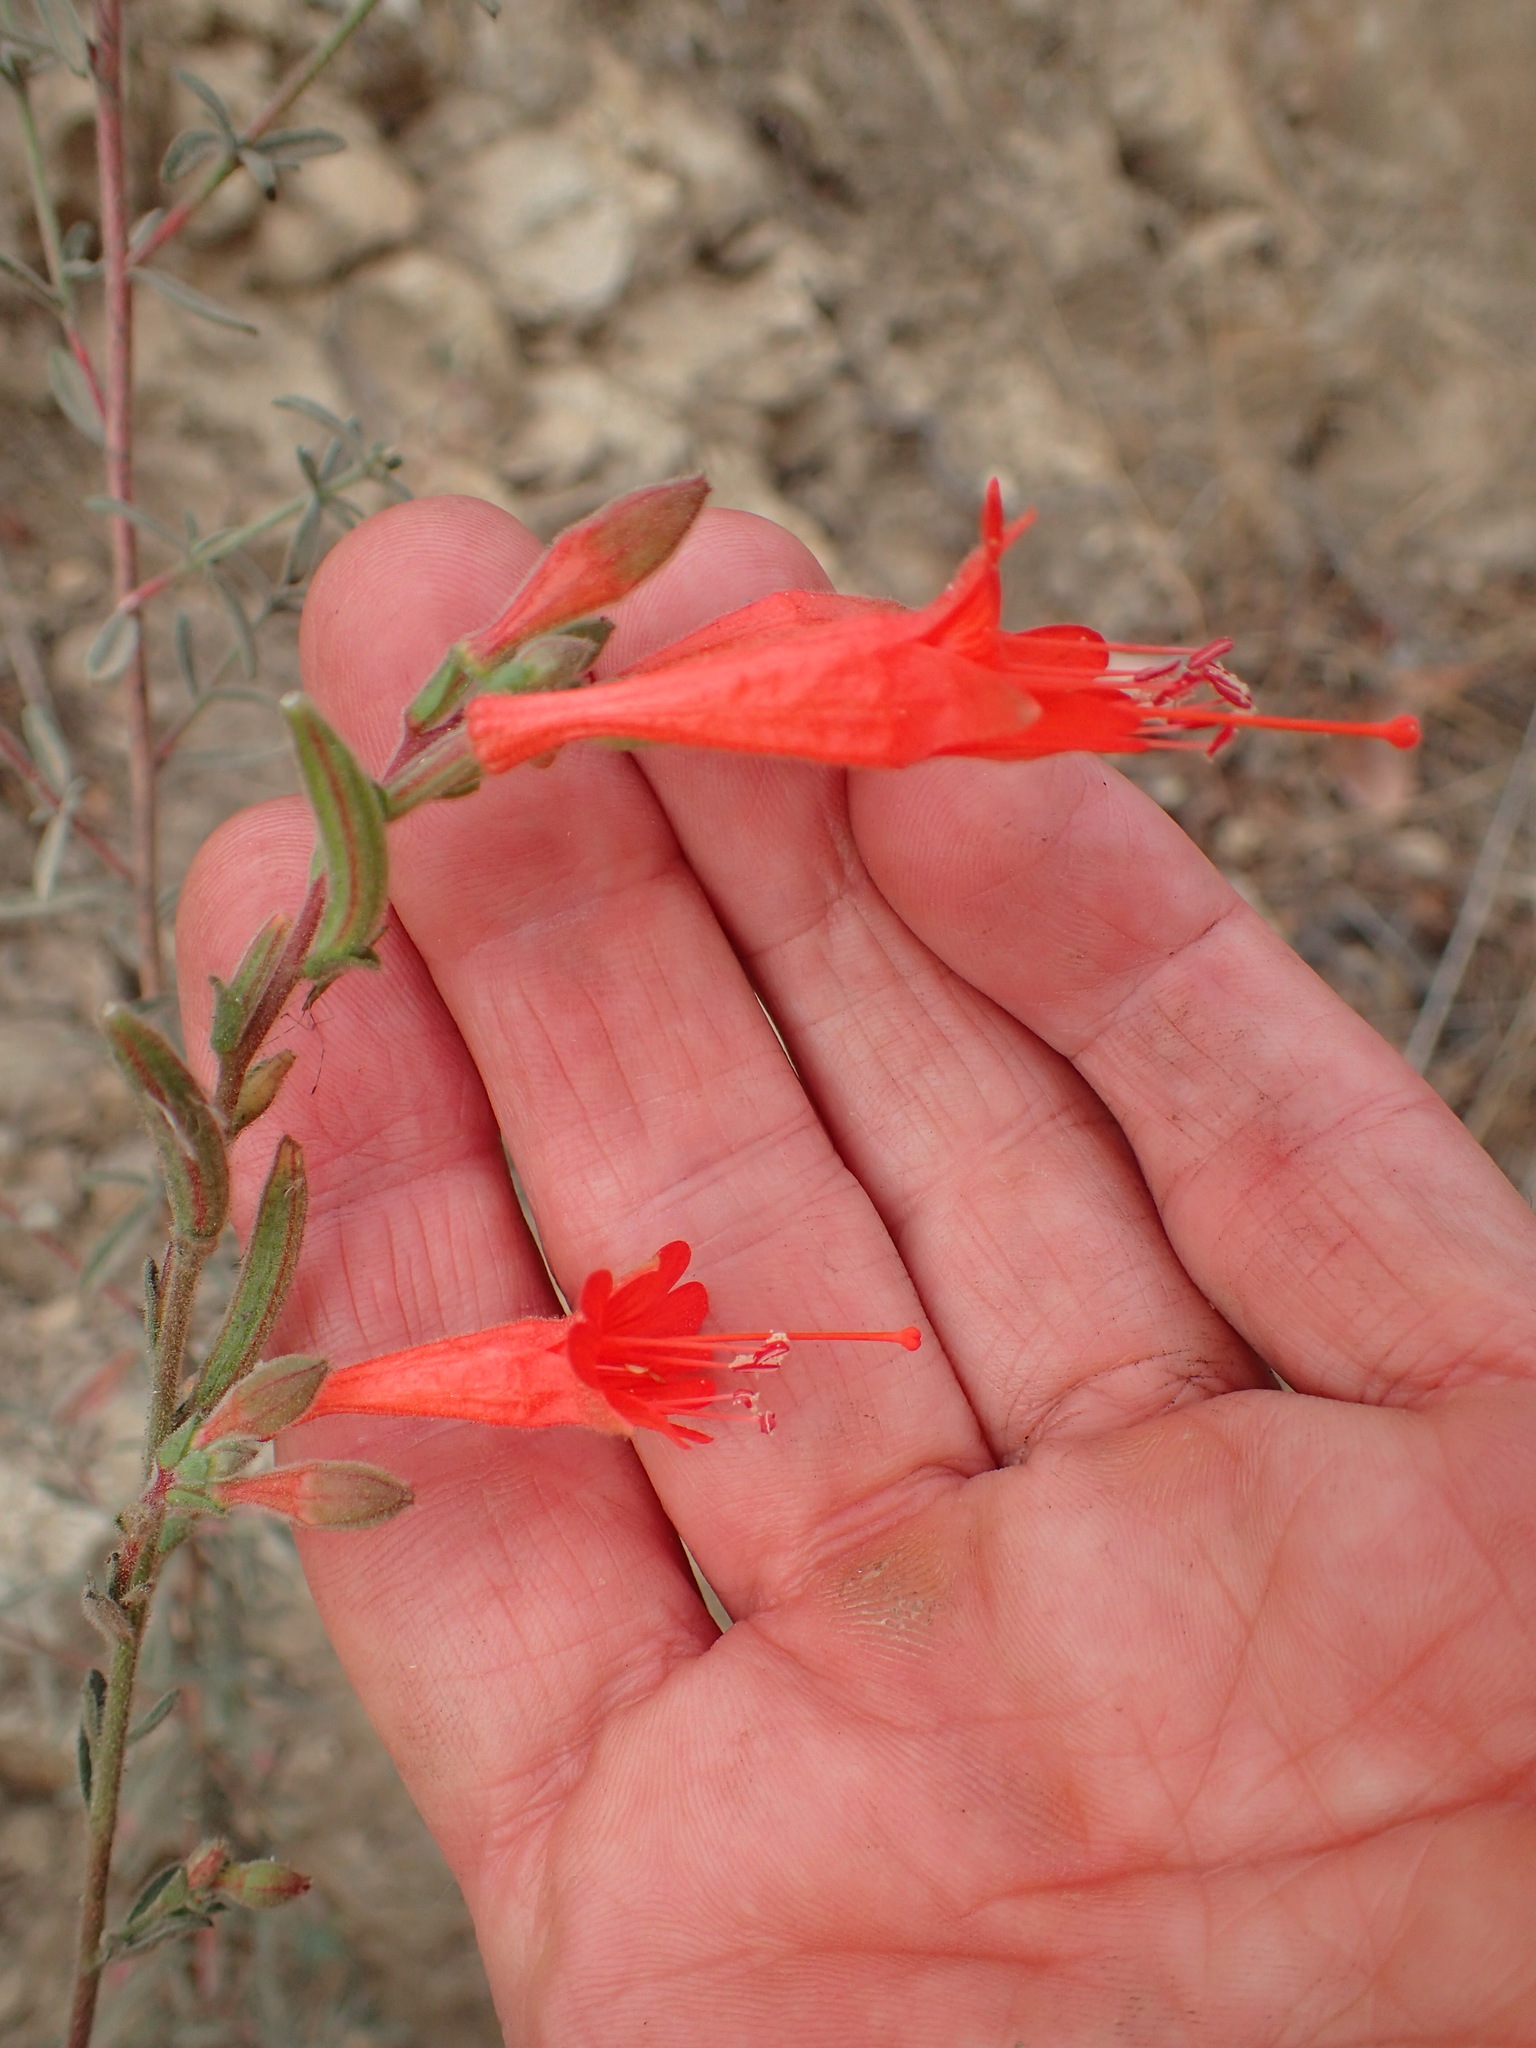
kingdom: Plantae
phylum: Tracheophyta
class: Magnoliopsida
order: Myrtales
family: Onagraceae
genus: Epilobium
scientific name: Epilobium canum
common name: California-fuchsia
